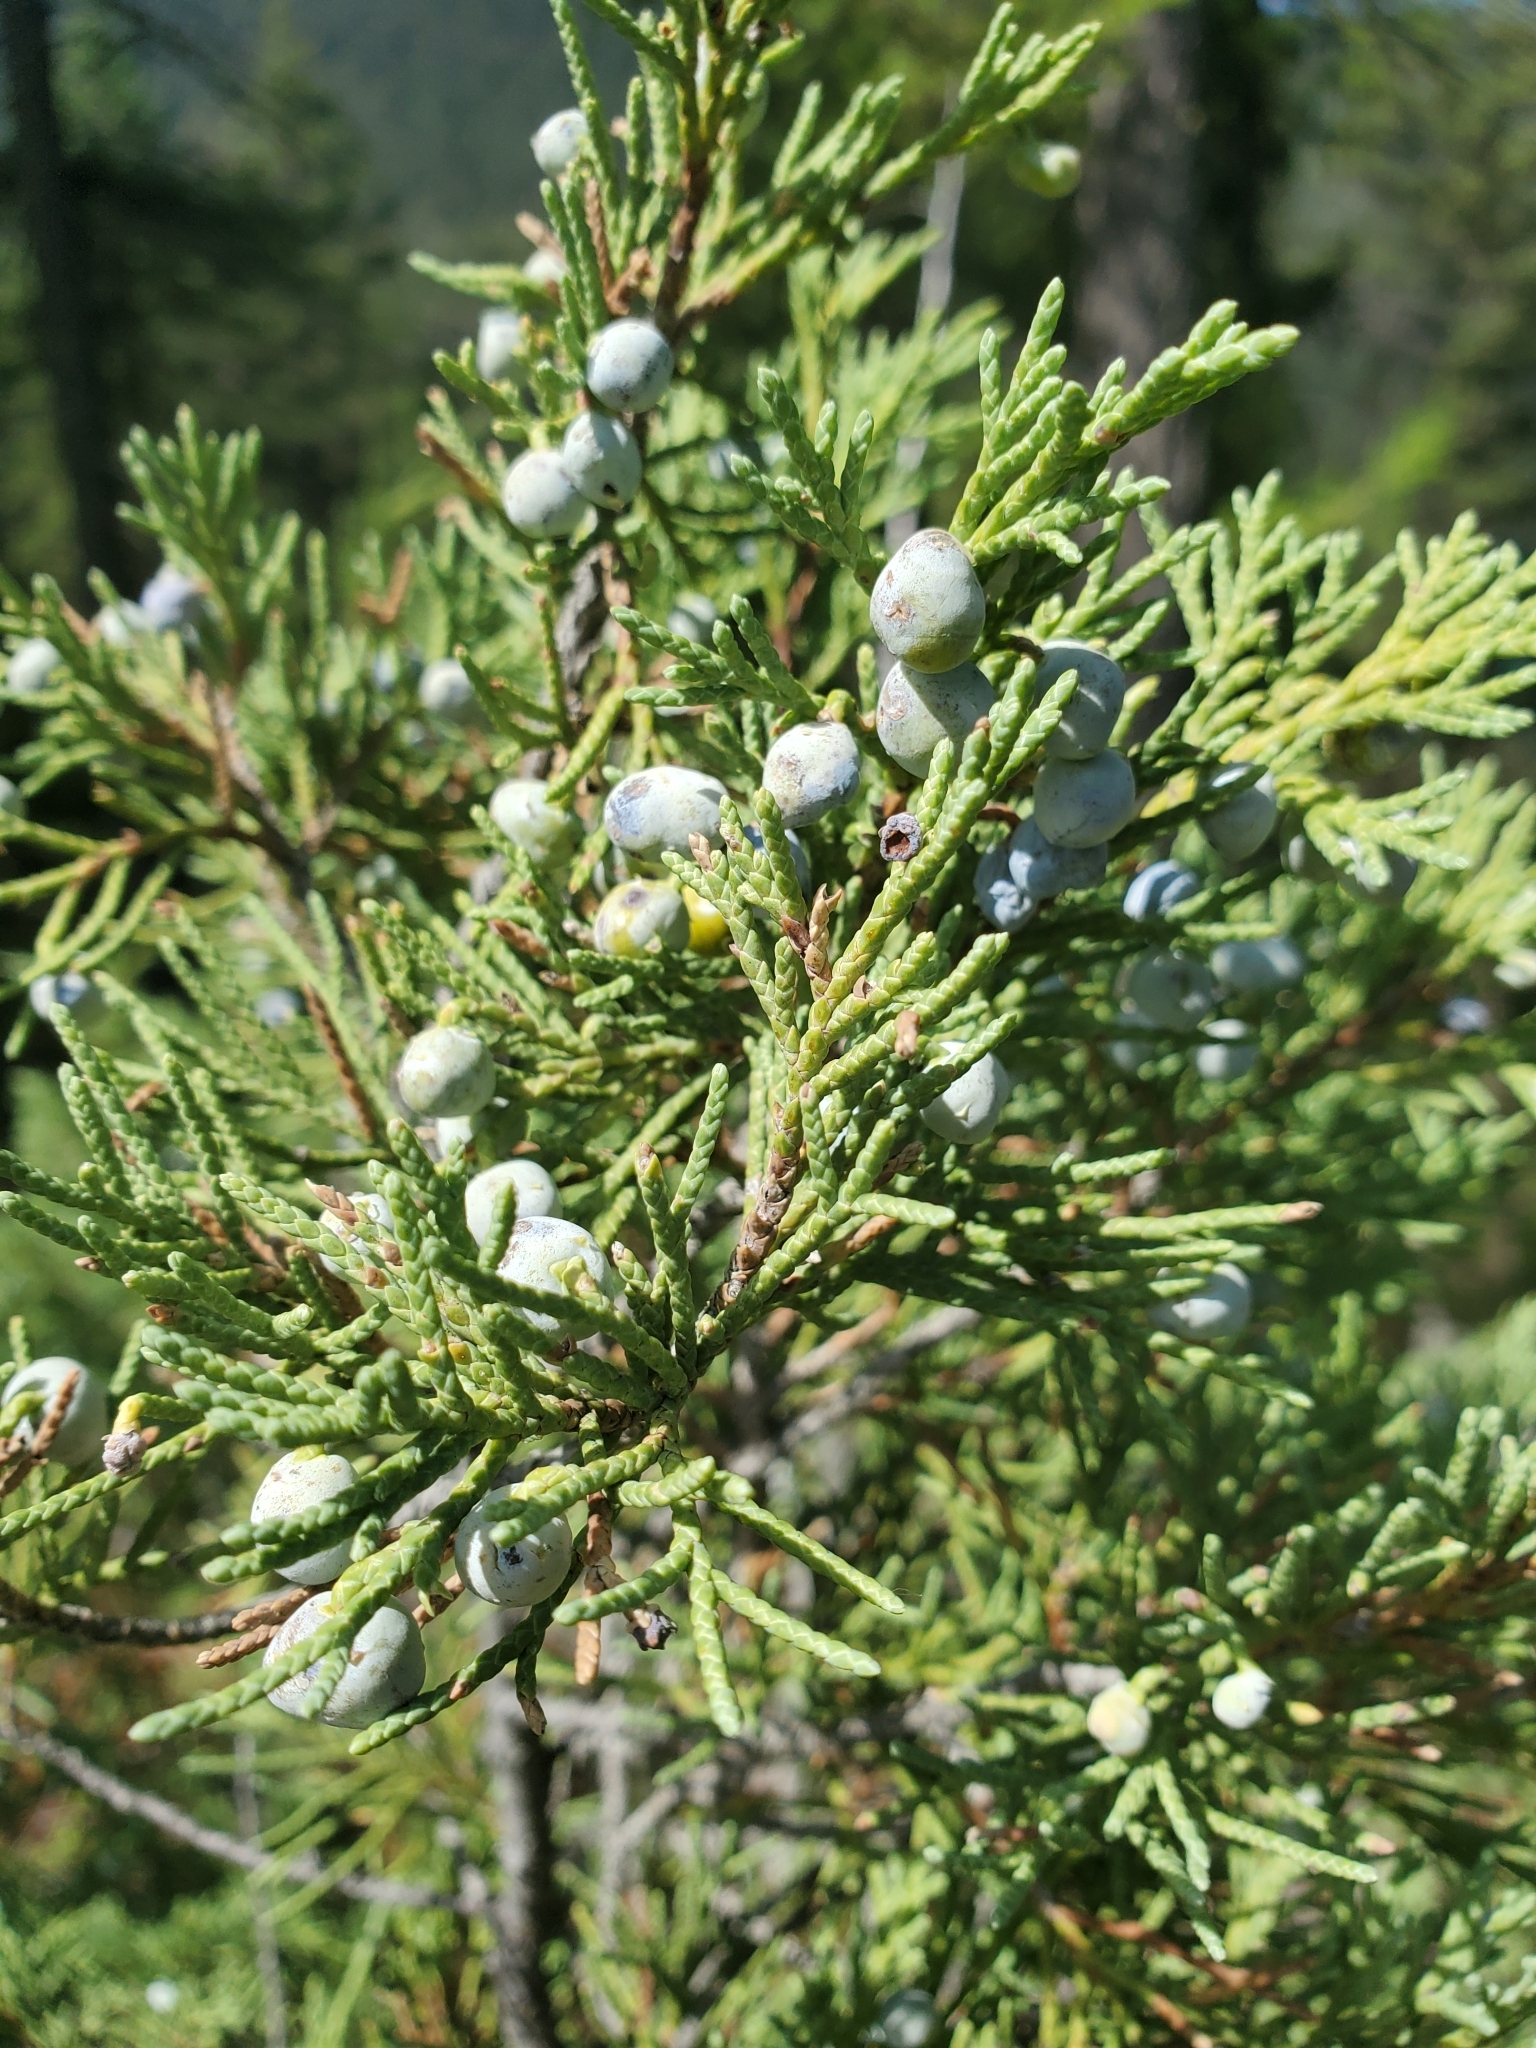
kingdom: Plantae
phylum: Tracheophyta
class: Pinopsida
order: Pinales
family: Cupressaceae
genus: Juniperus
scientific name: Juniperus scopulorum
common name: Rocky mountain juniper
